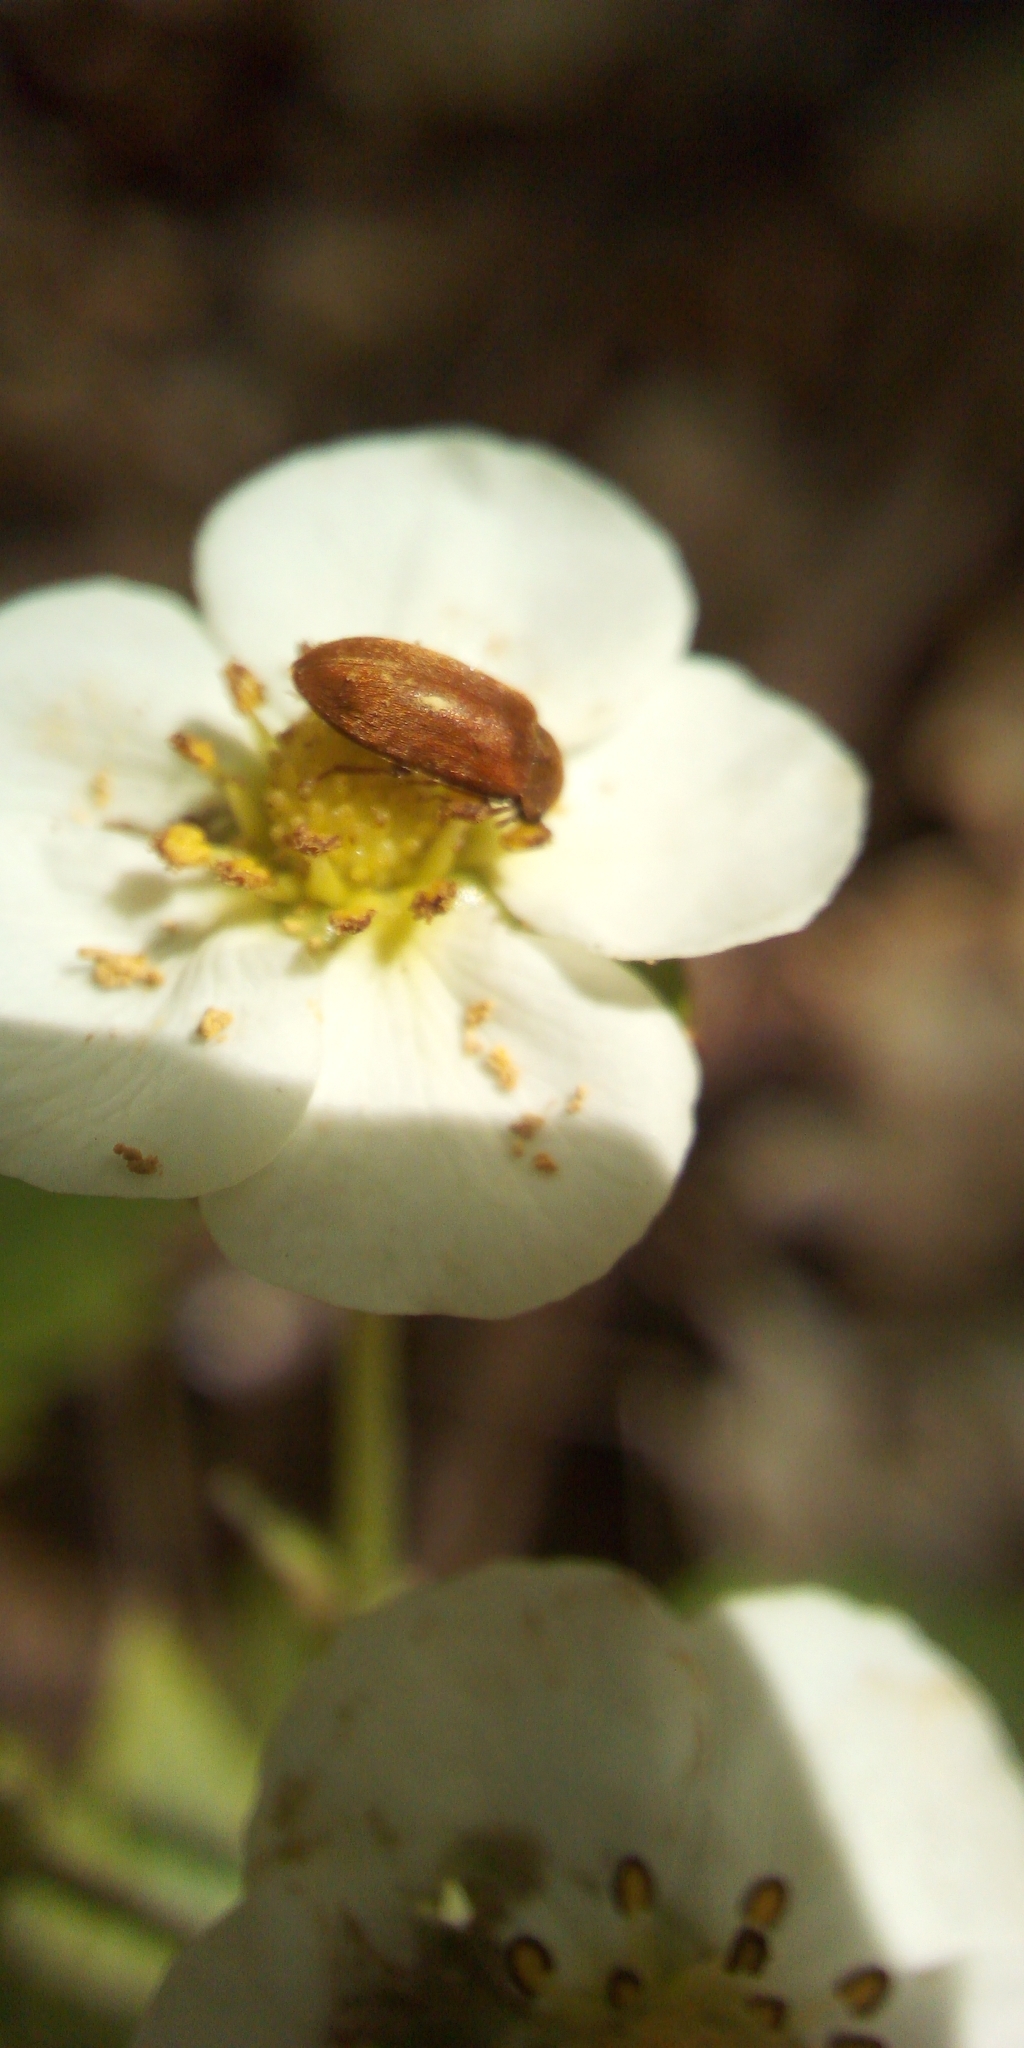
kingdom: Animalia
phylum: Arthropoda
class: Insecta
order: Coleoptera
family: Byturidae
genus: Byturus
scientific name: Byturus ochraceus
